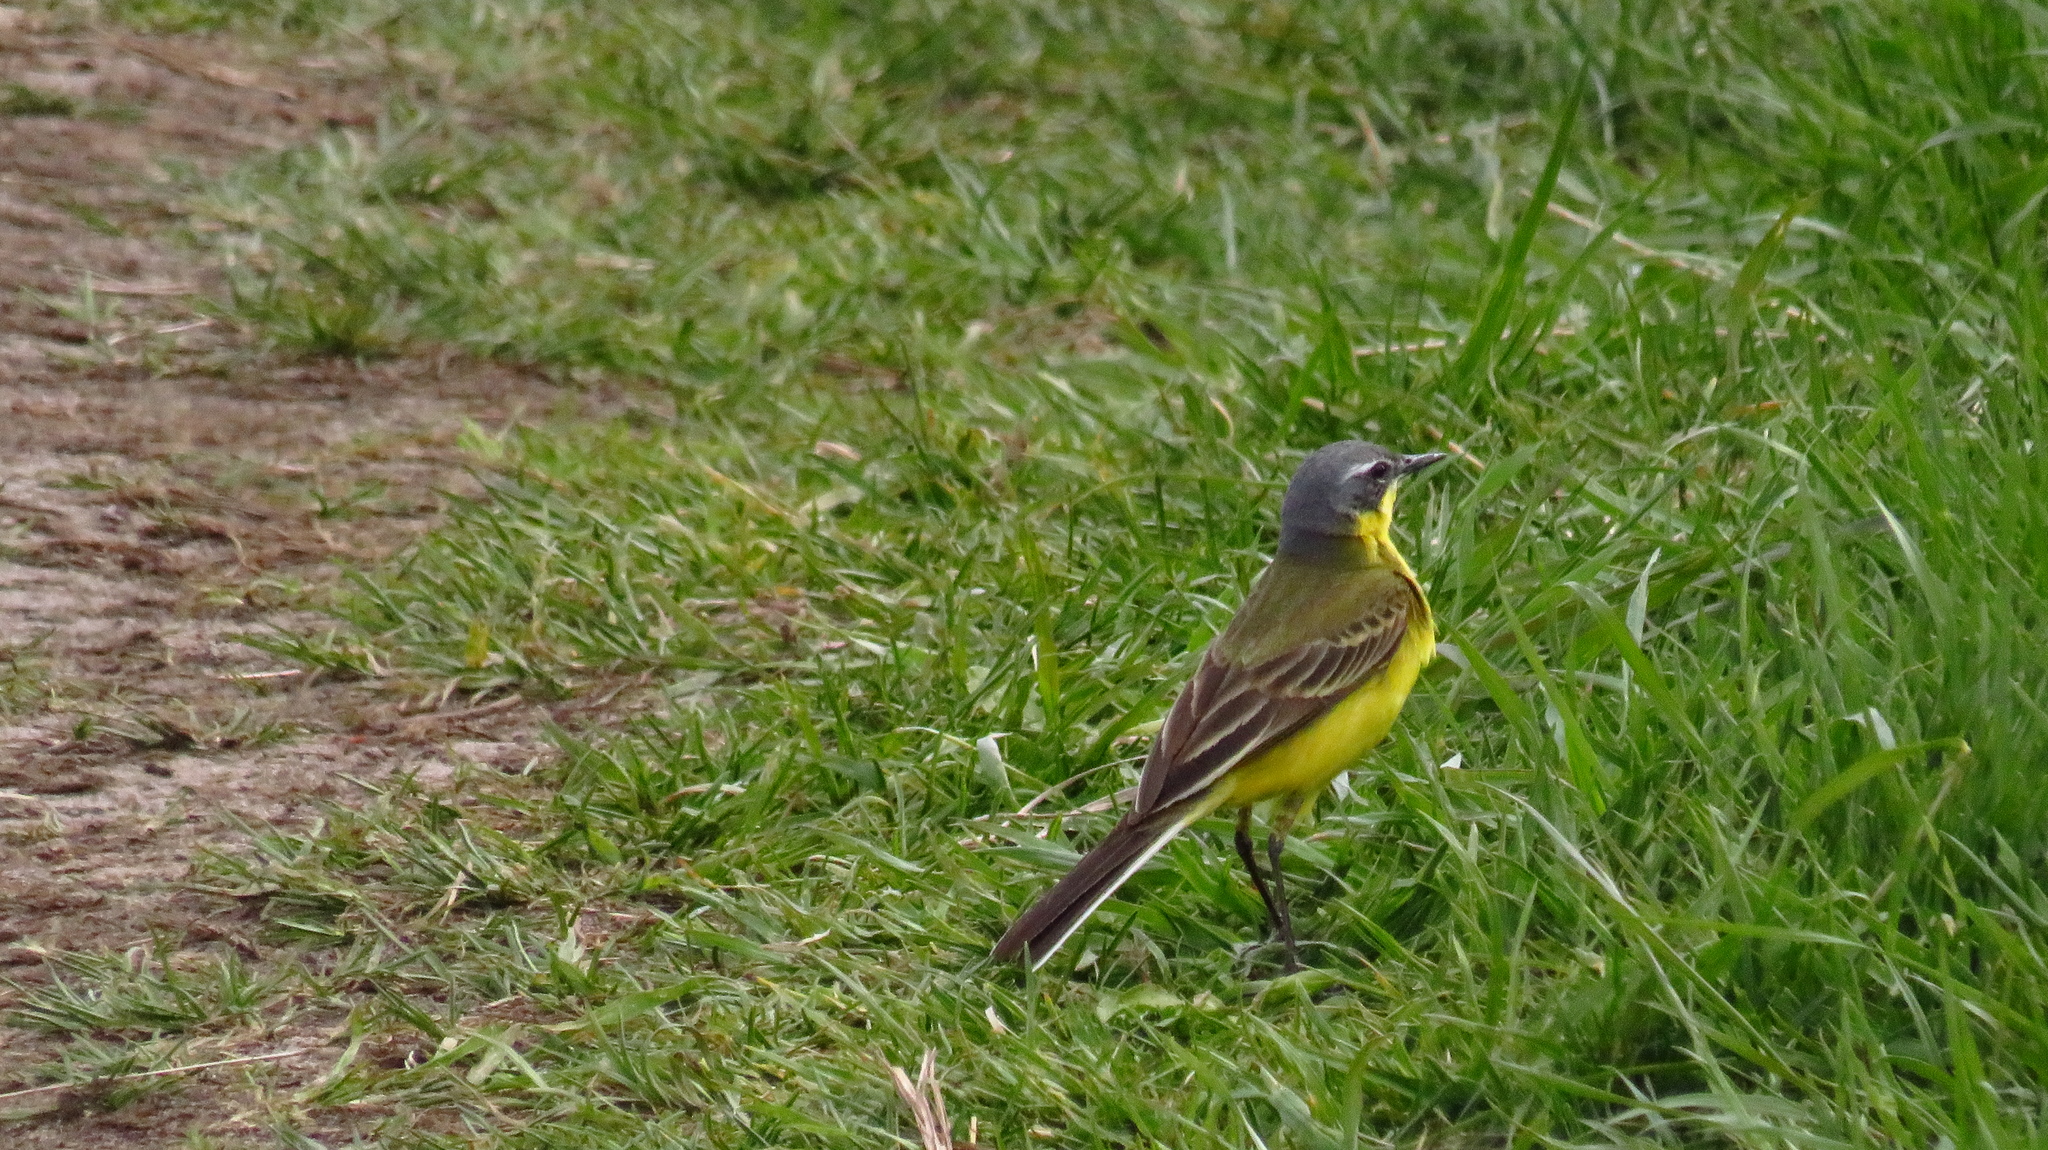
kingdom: Animalia
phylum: Chordata
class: Aves
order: Passeriformes
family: Motacillidae
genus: Motacilla
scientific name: Motacilla flava
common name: Western yellow wagtail
